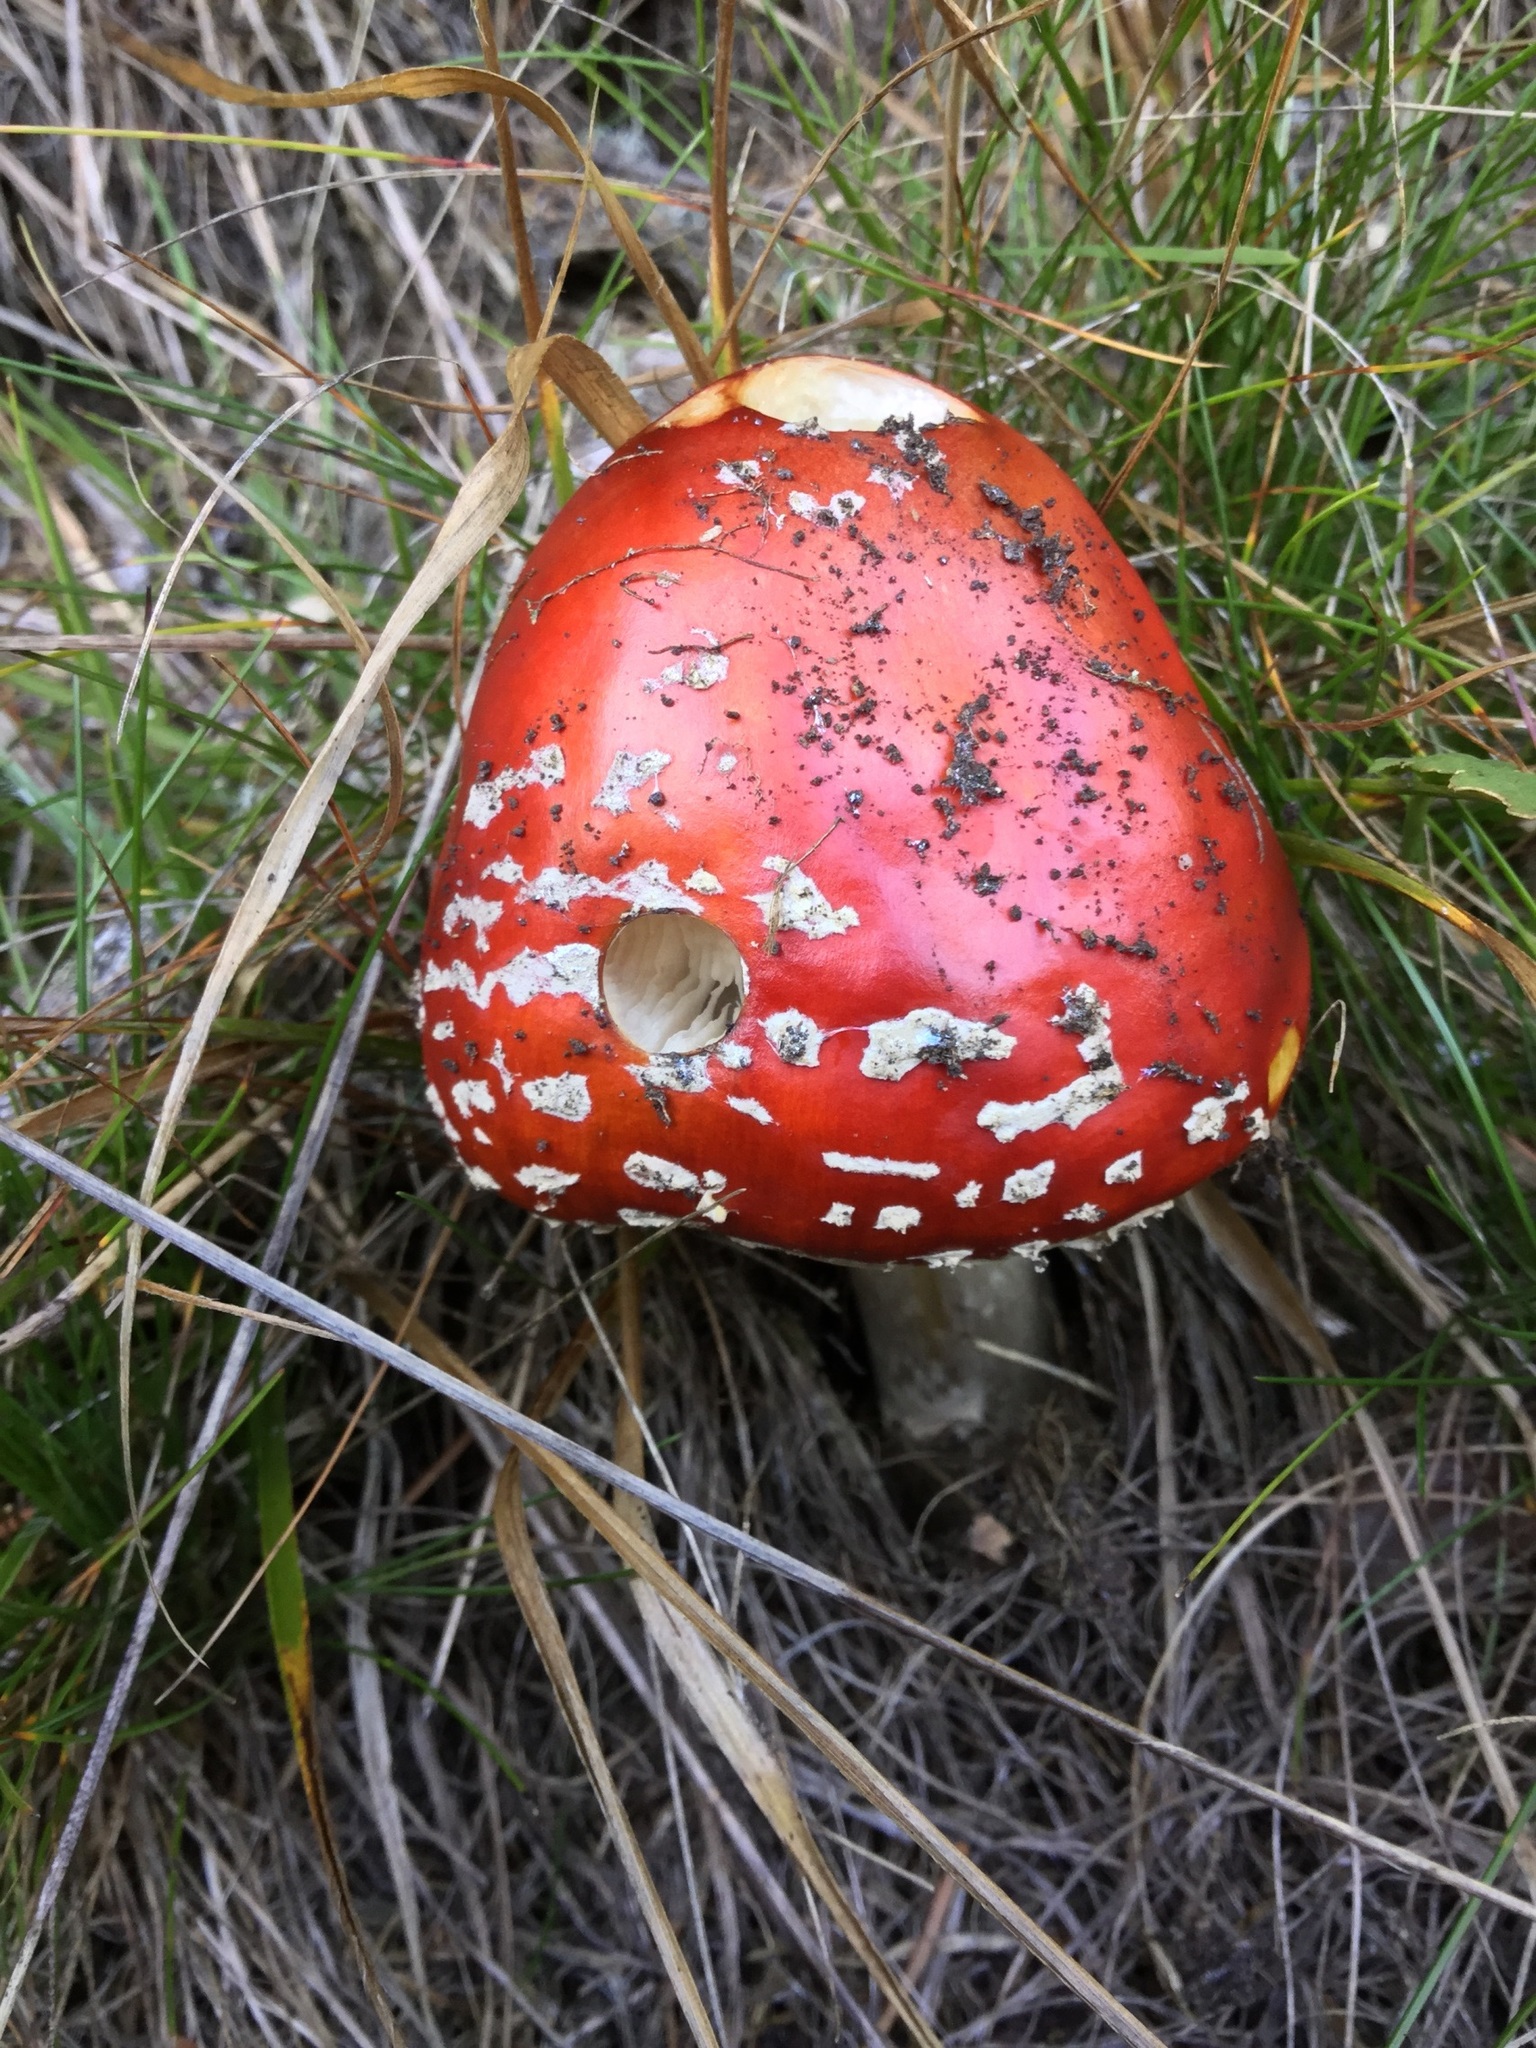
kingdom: Fungi
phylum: Basidiomycota
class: Agaricomycetes
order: Agaricales
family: Amanitaceae
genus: Amanita
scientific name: Amanita muscaria
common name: Fly agaric
